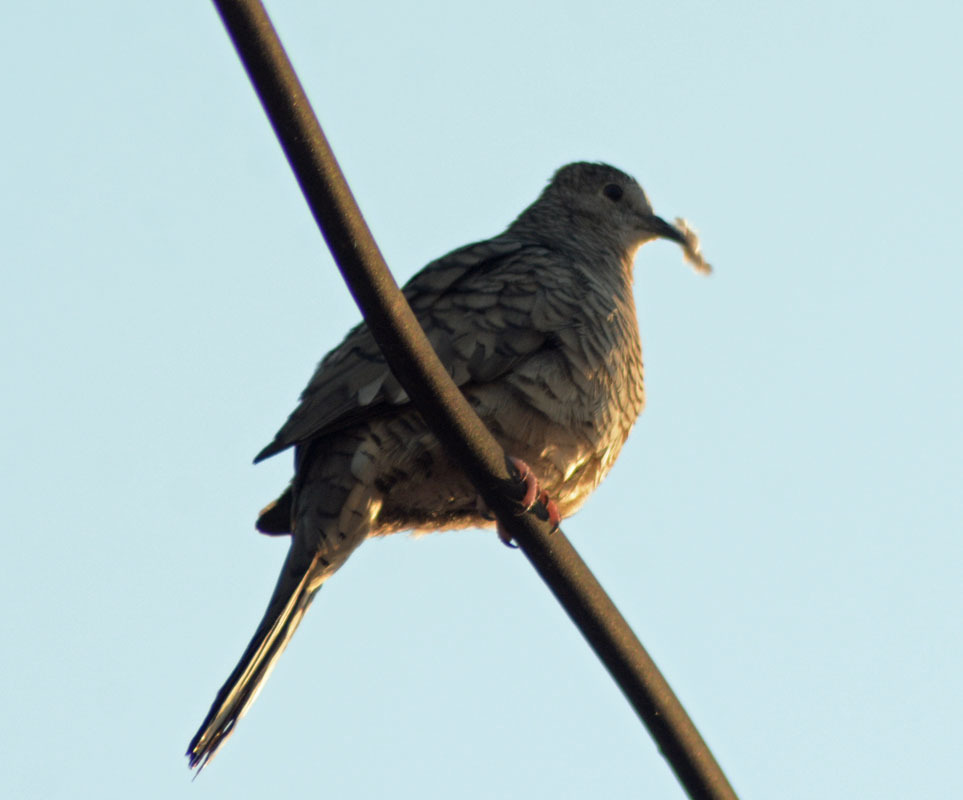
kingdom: Animalia
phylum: Chordata
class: Aves
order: Columbiformes
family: Columbidae
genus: Columbina
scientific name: Columbina inca
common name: Inca dove
